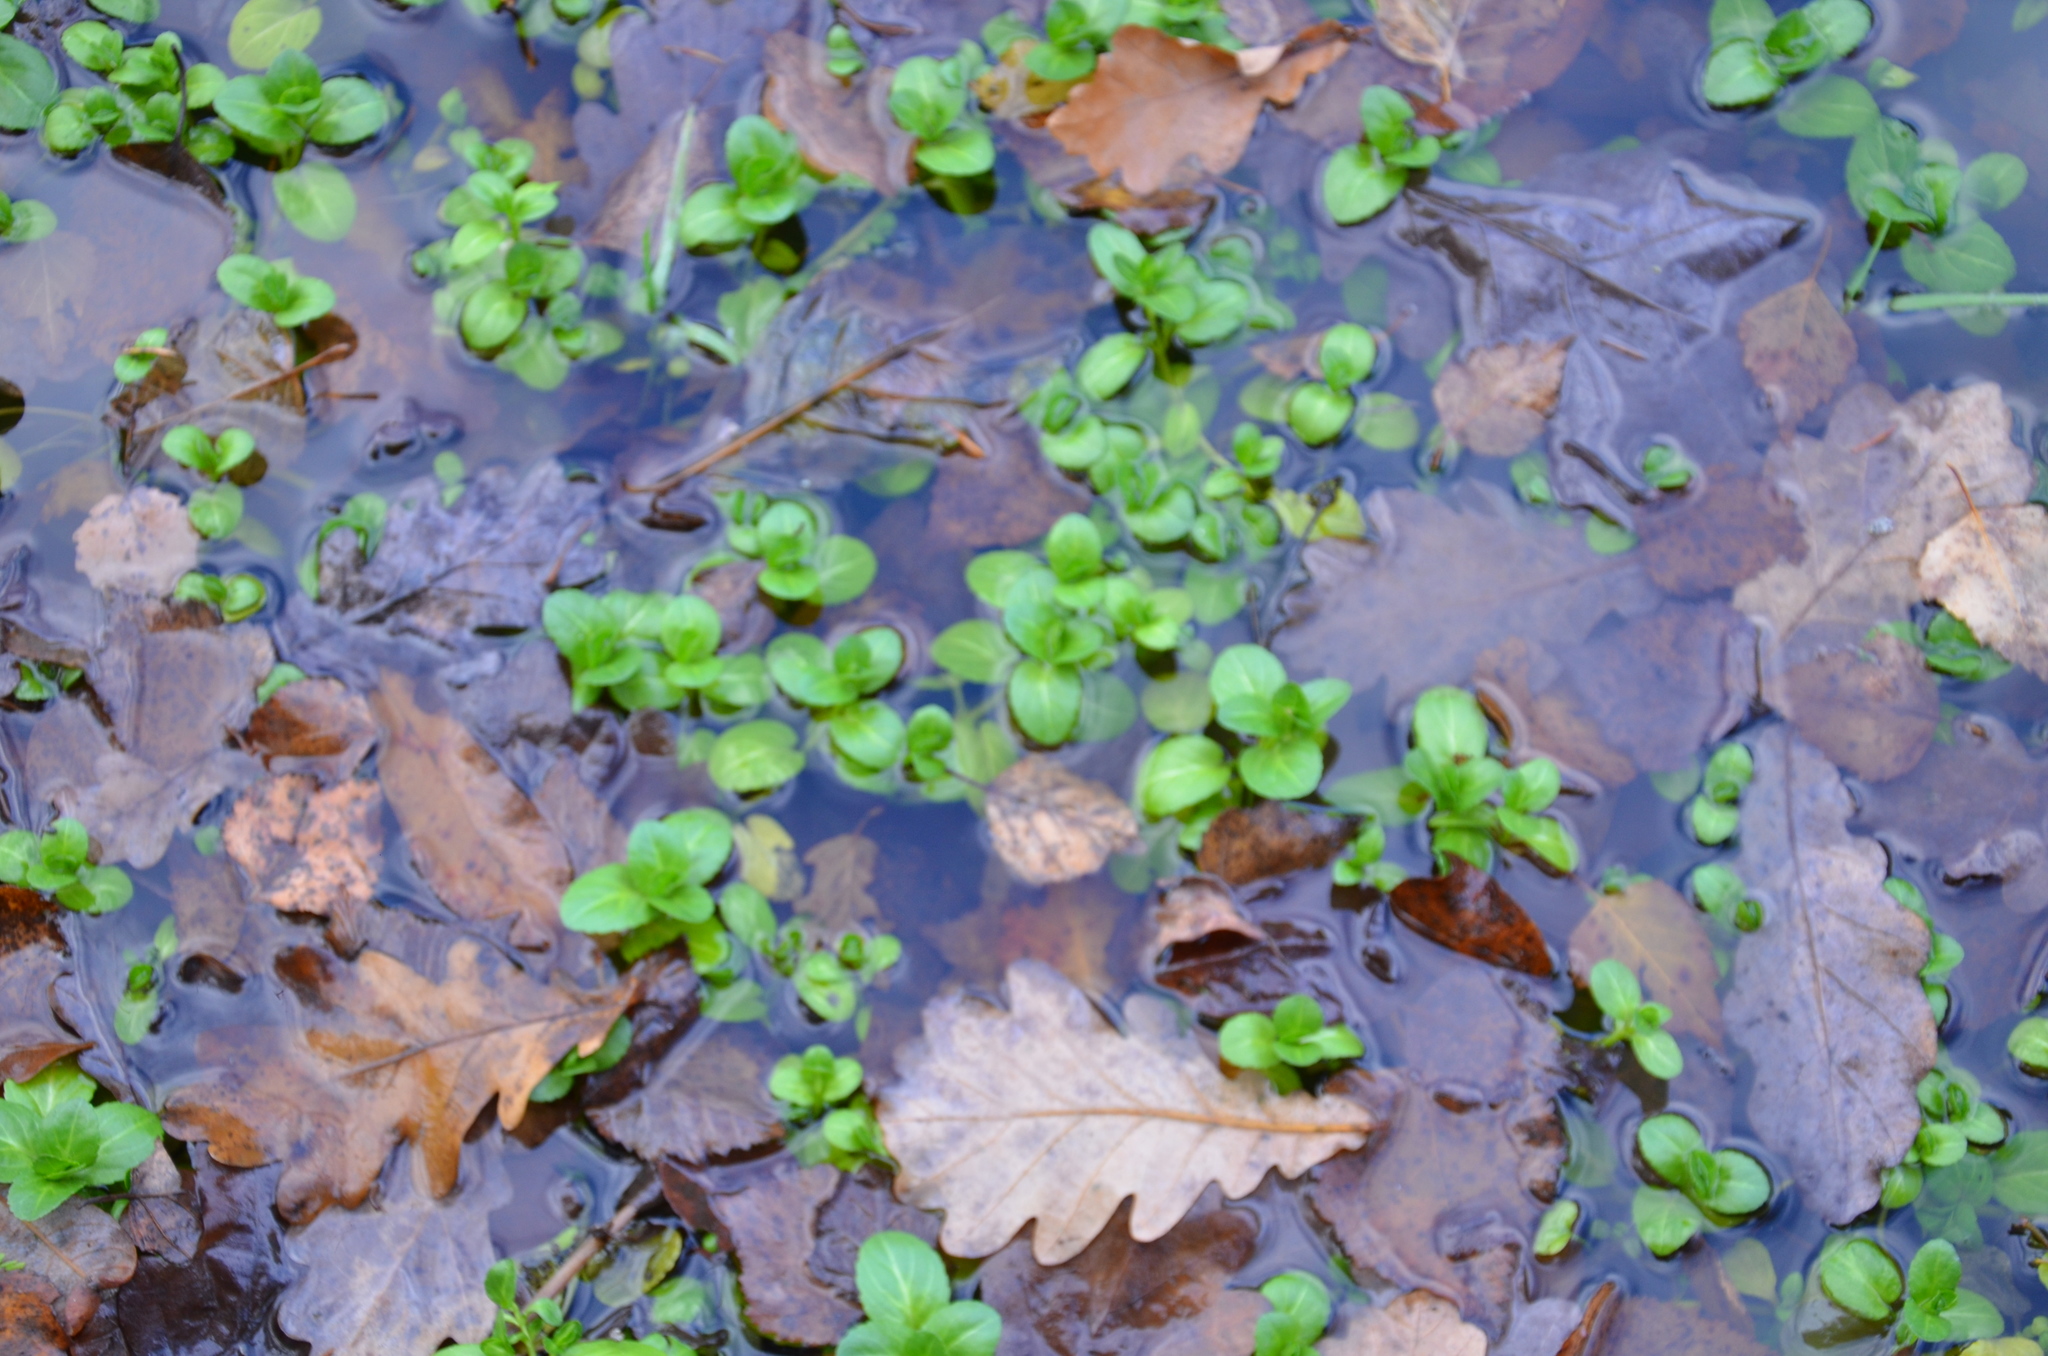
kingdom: Plantae
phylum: Tracheophyta
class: Magnoliopsida
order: Lamiales
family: Plantaginaceae
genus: Veronica
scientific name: Veronica beccabunga
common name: Brooklime
